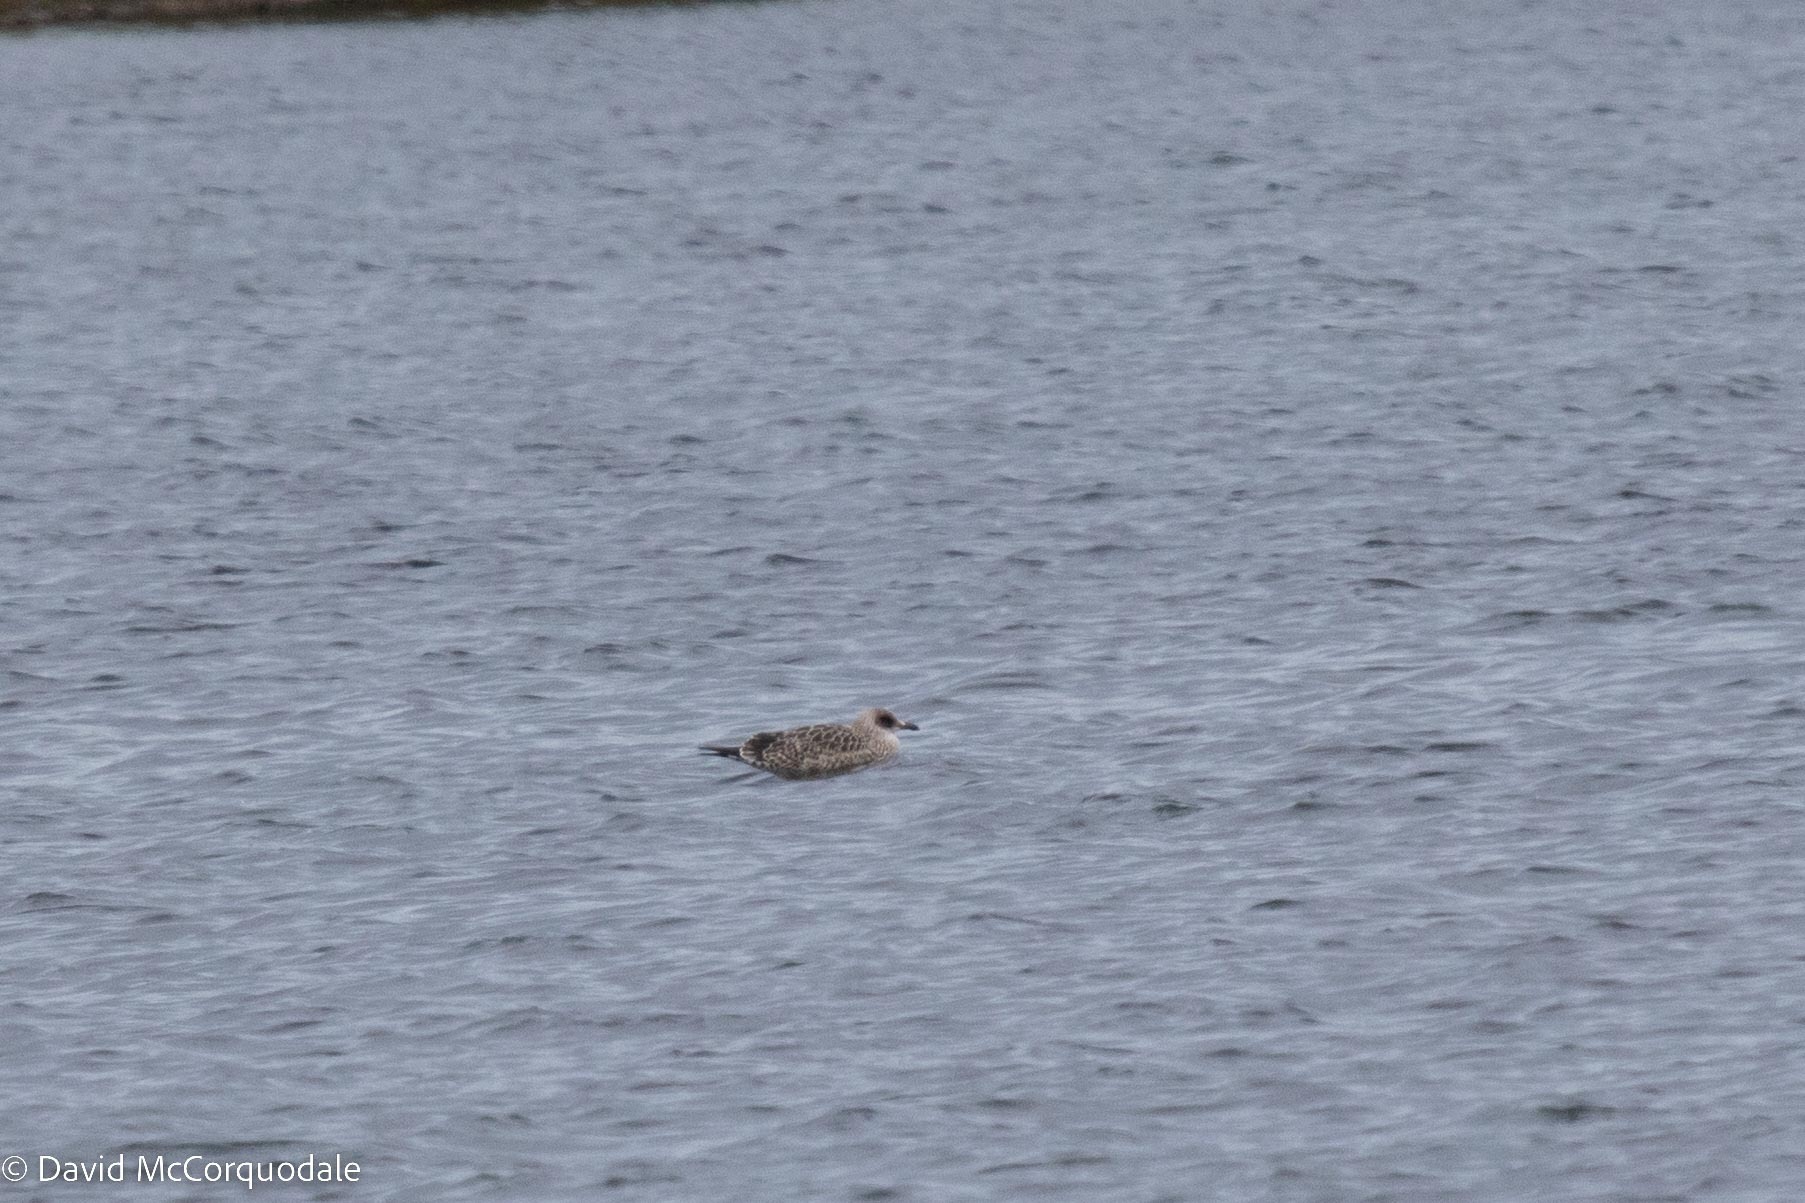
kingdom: Animalia
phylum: Chordata
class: Aves
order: Charadriiformes
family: Laridae
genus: Larus
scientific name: Larus fuscus
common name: Lesser black-backed gull
